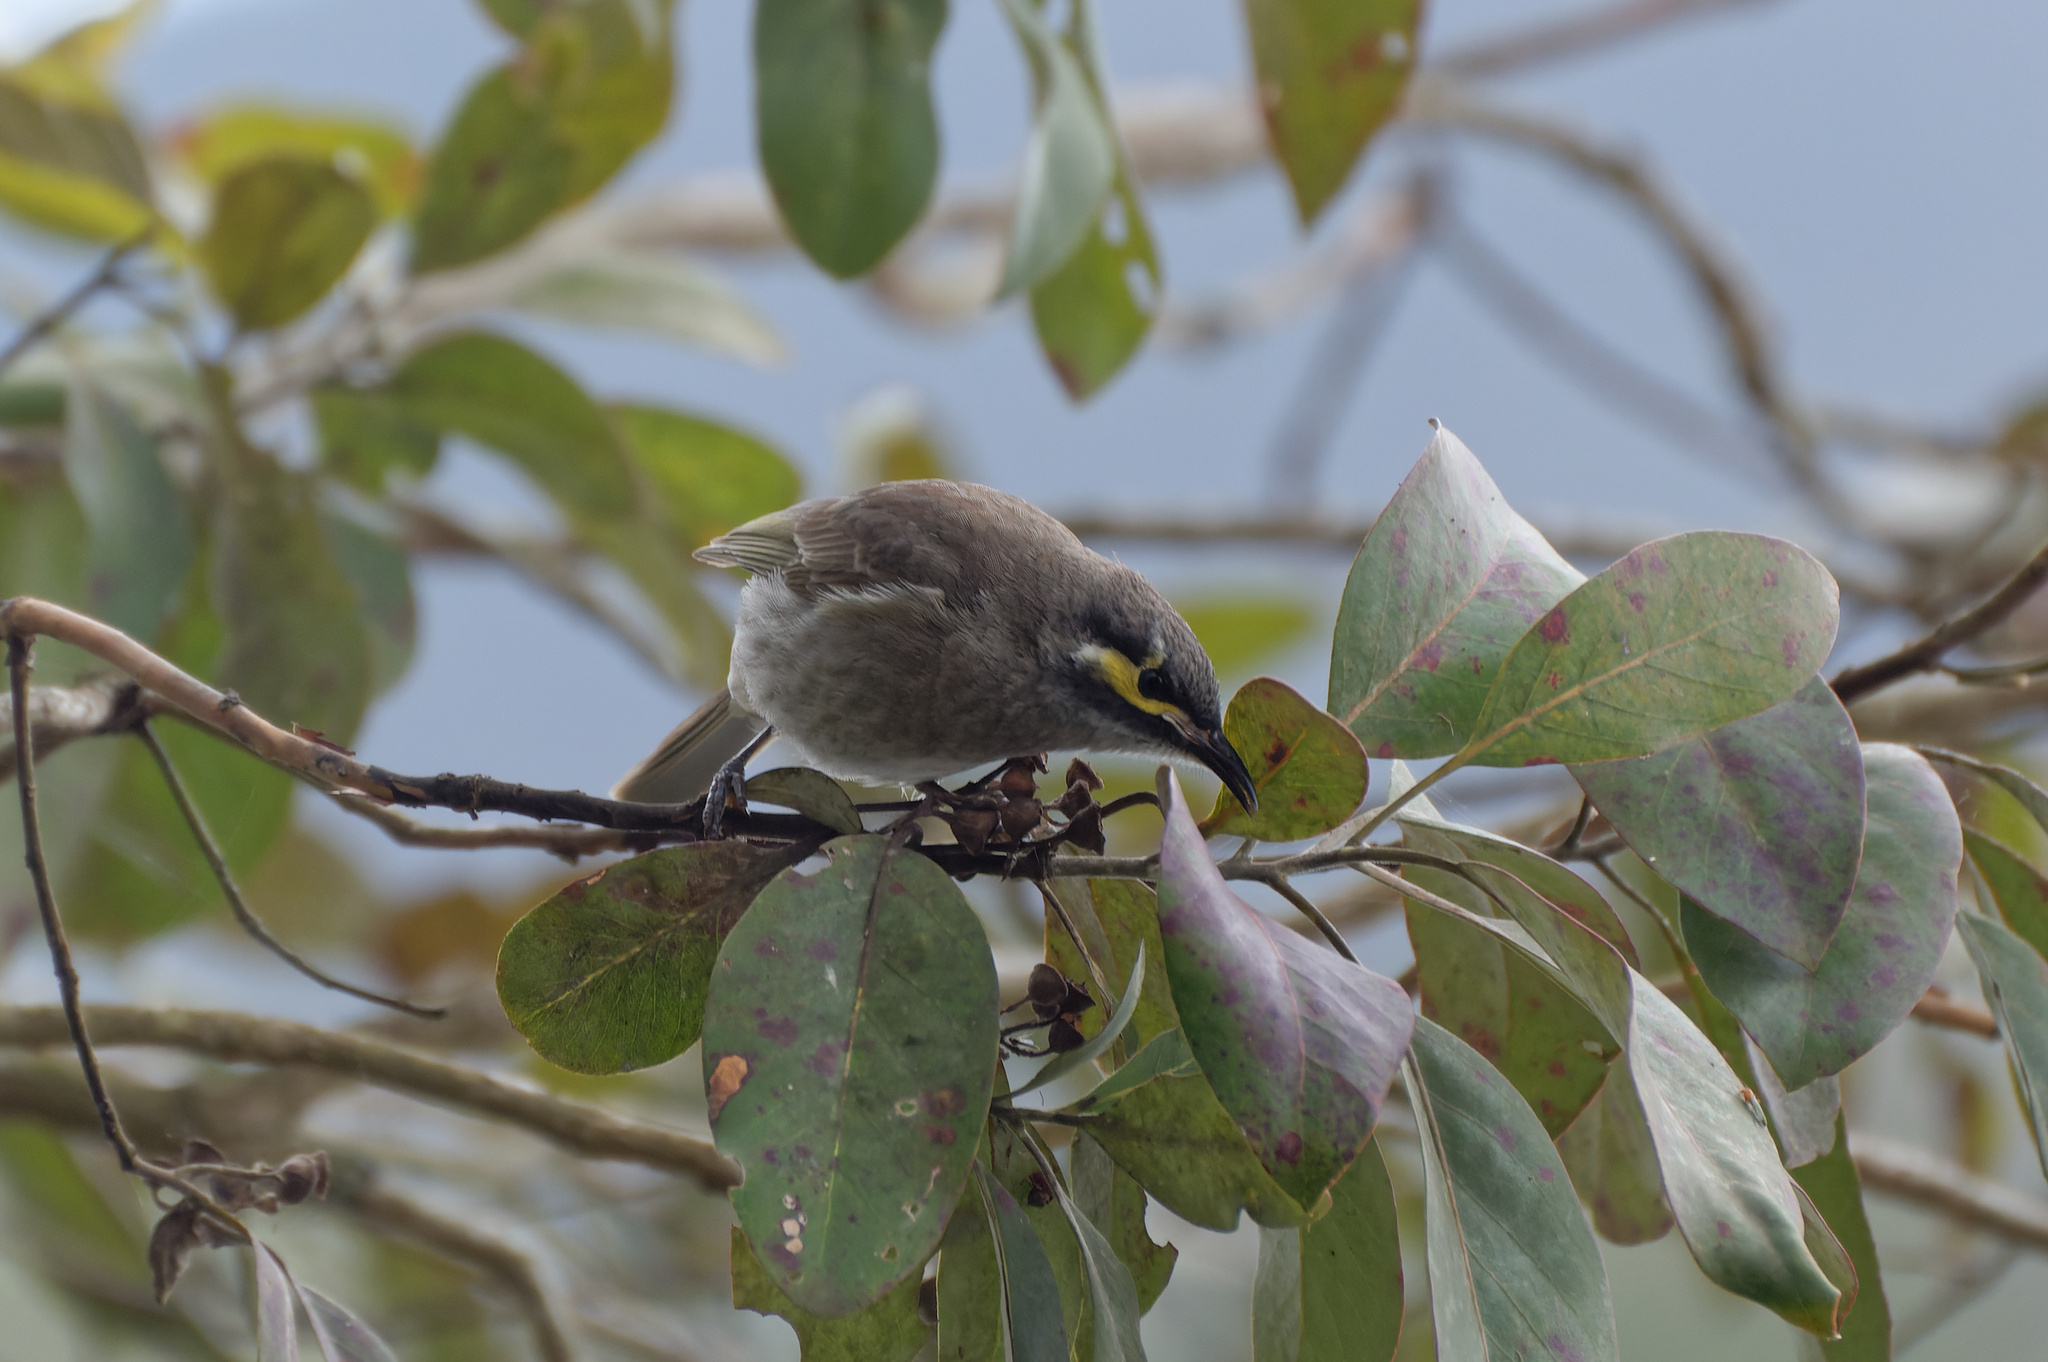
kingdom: Animalia
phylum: Chordata
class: Aves
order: Passeriformes
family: Meliphagidae
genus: Caligavis
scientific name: Caligavis chrysops
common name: Yellow-faced honeyeater
